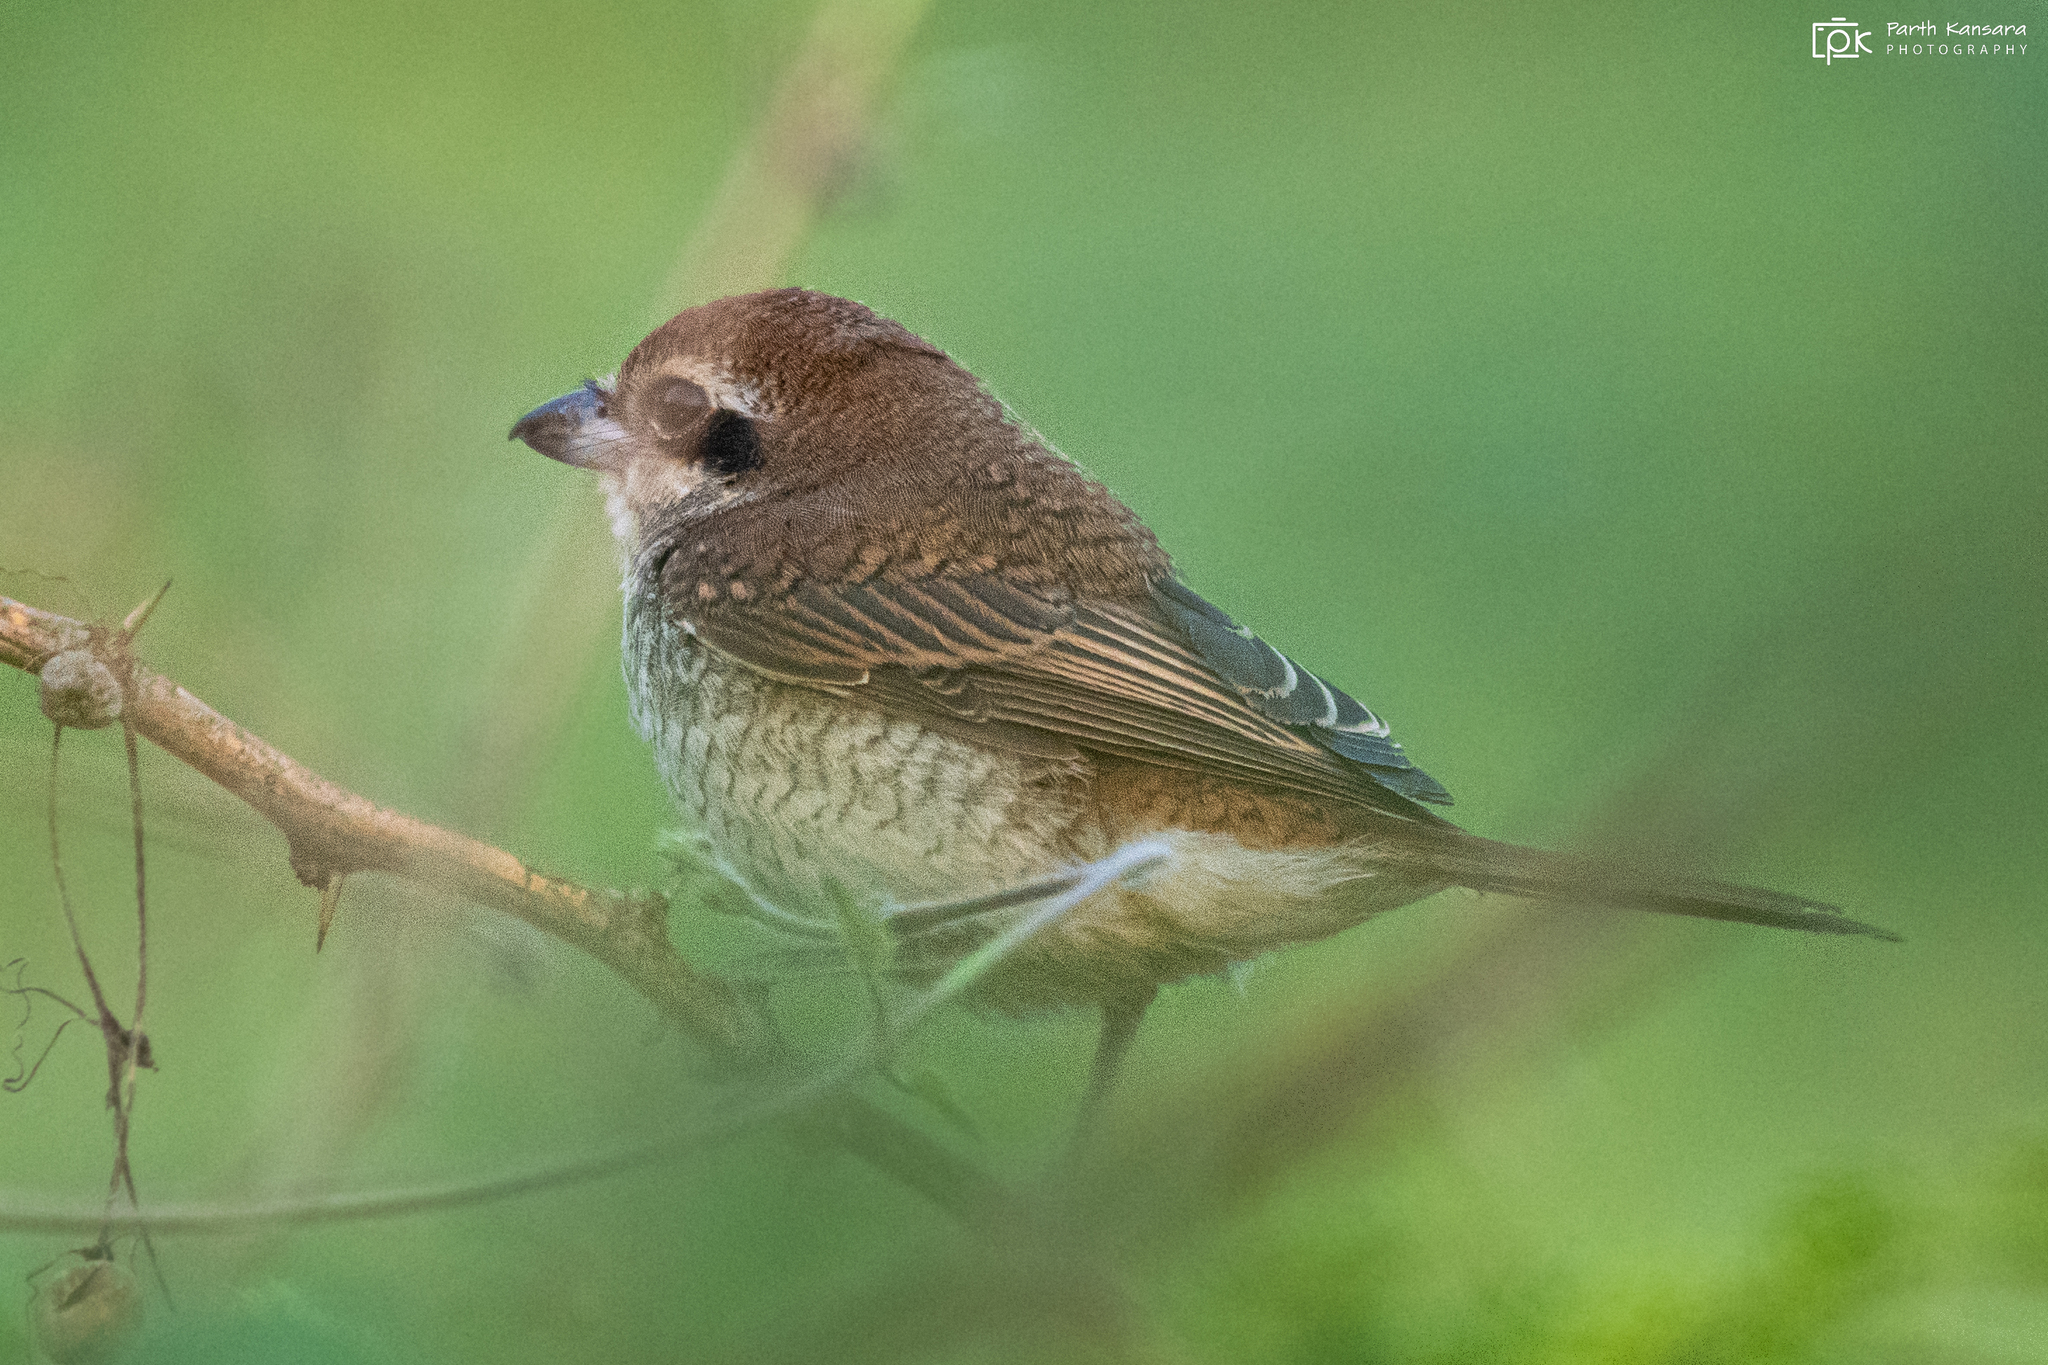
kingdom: Animalia
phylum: Chordata
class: Aves
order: Passeriformes
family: Laniidae
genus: Lanius
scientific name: Lanius cristatus
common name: Brown shrike
